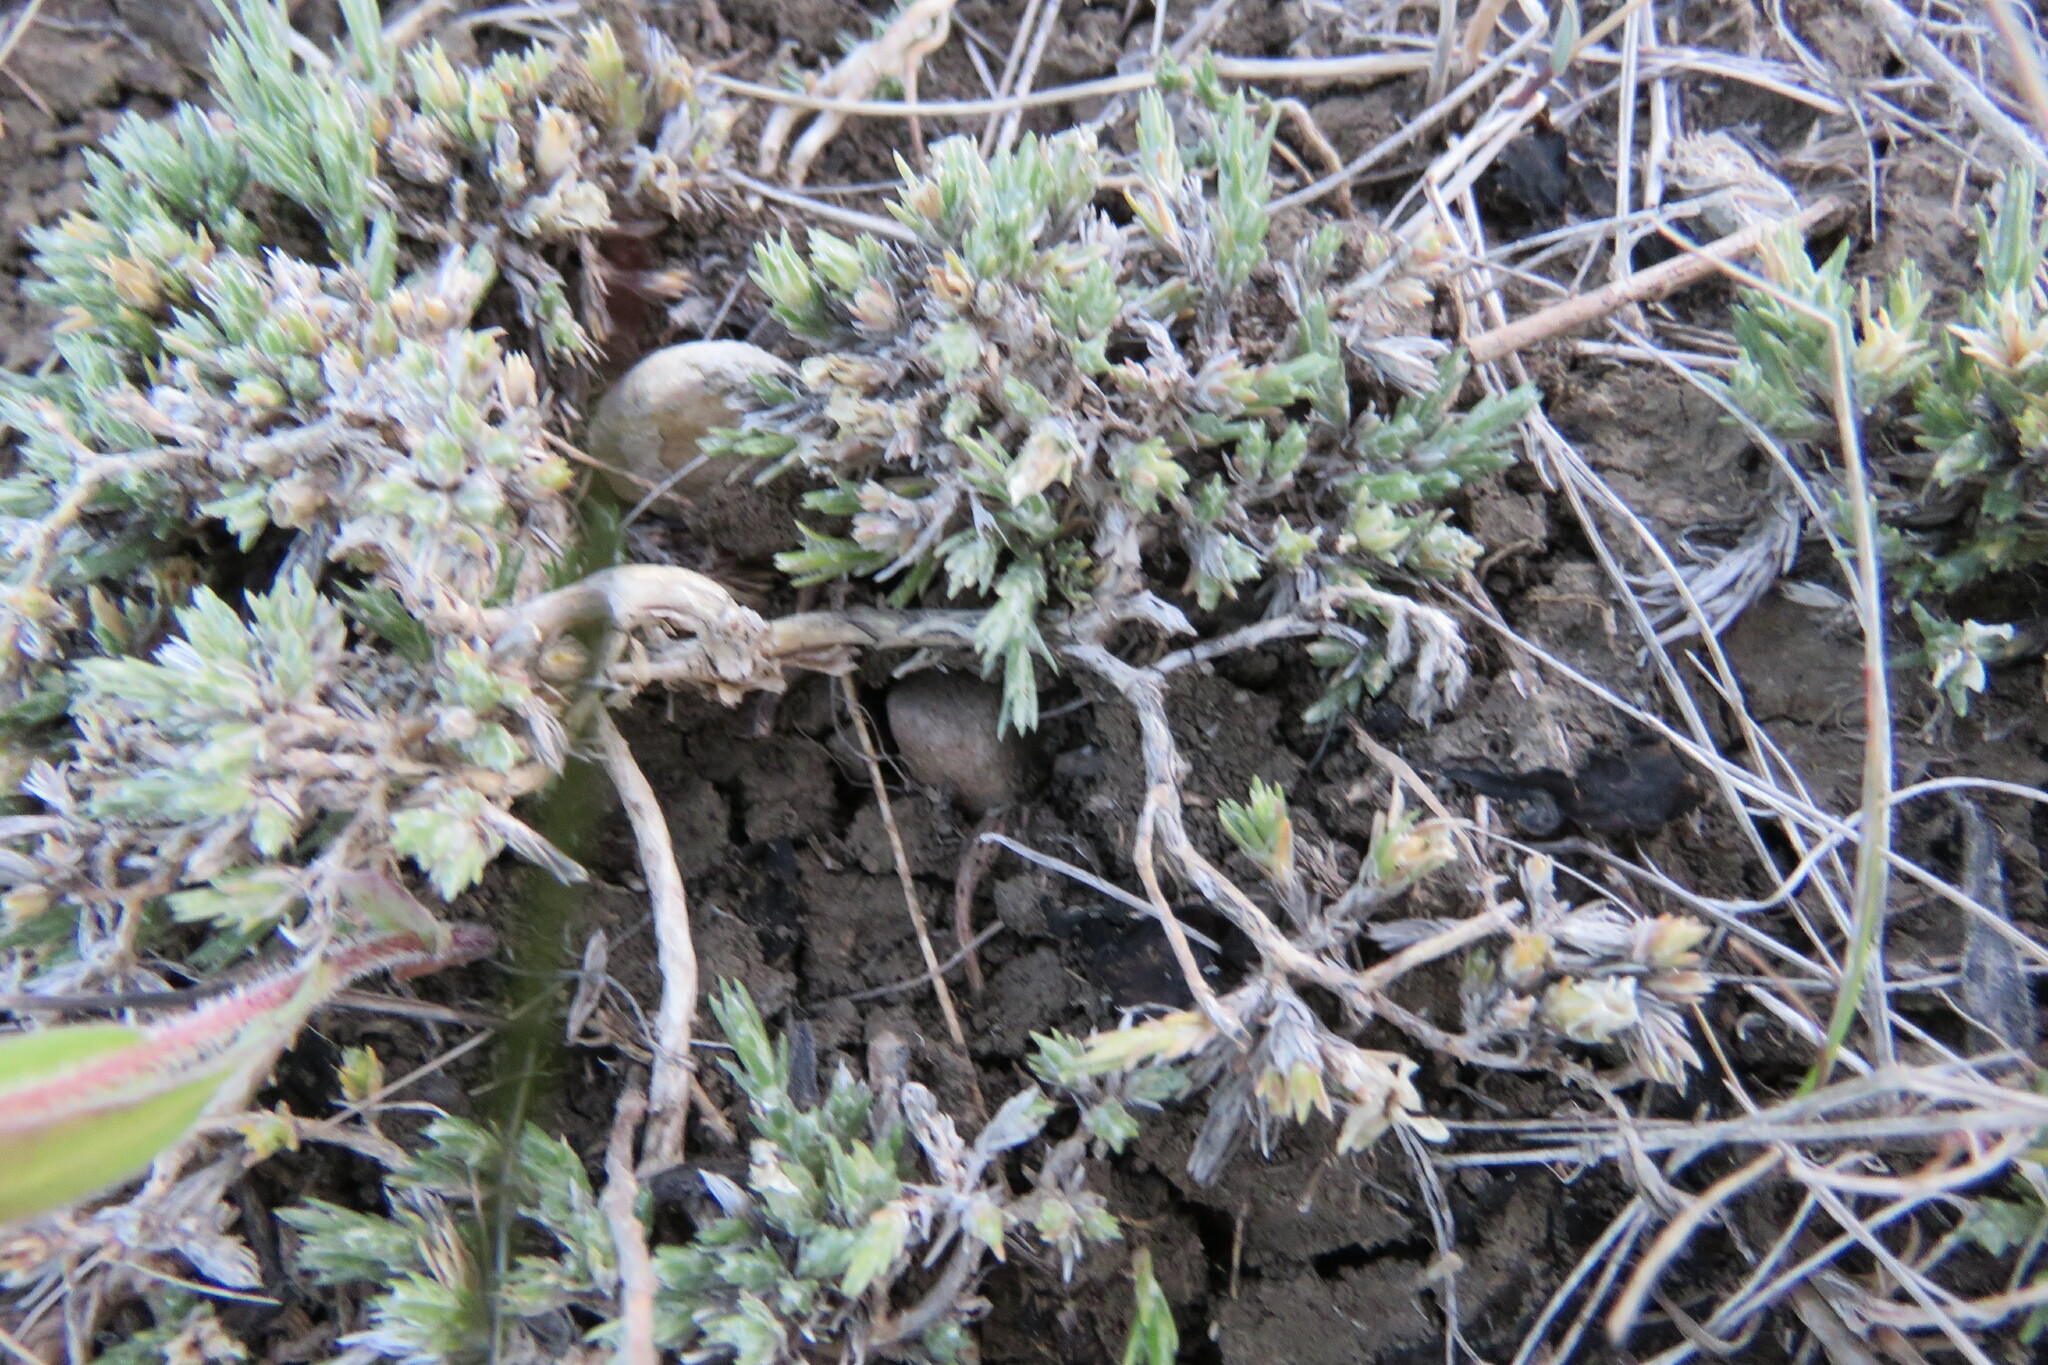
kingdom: Plantae
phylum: Tracheophyta
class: Magnoliopsida
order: Ericales
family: Polemoniaceae
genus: Phlox
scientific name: Phlox hoodii
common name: Moss phlox
